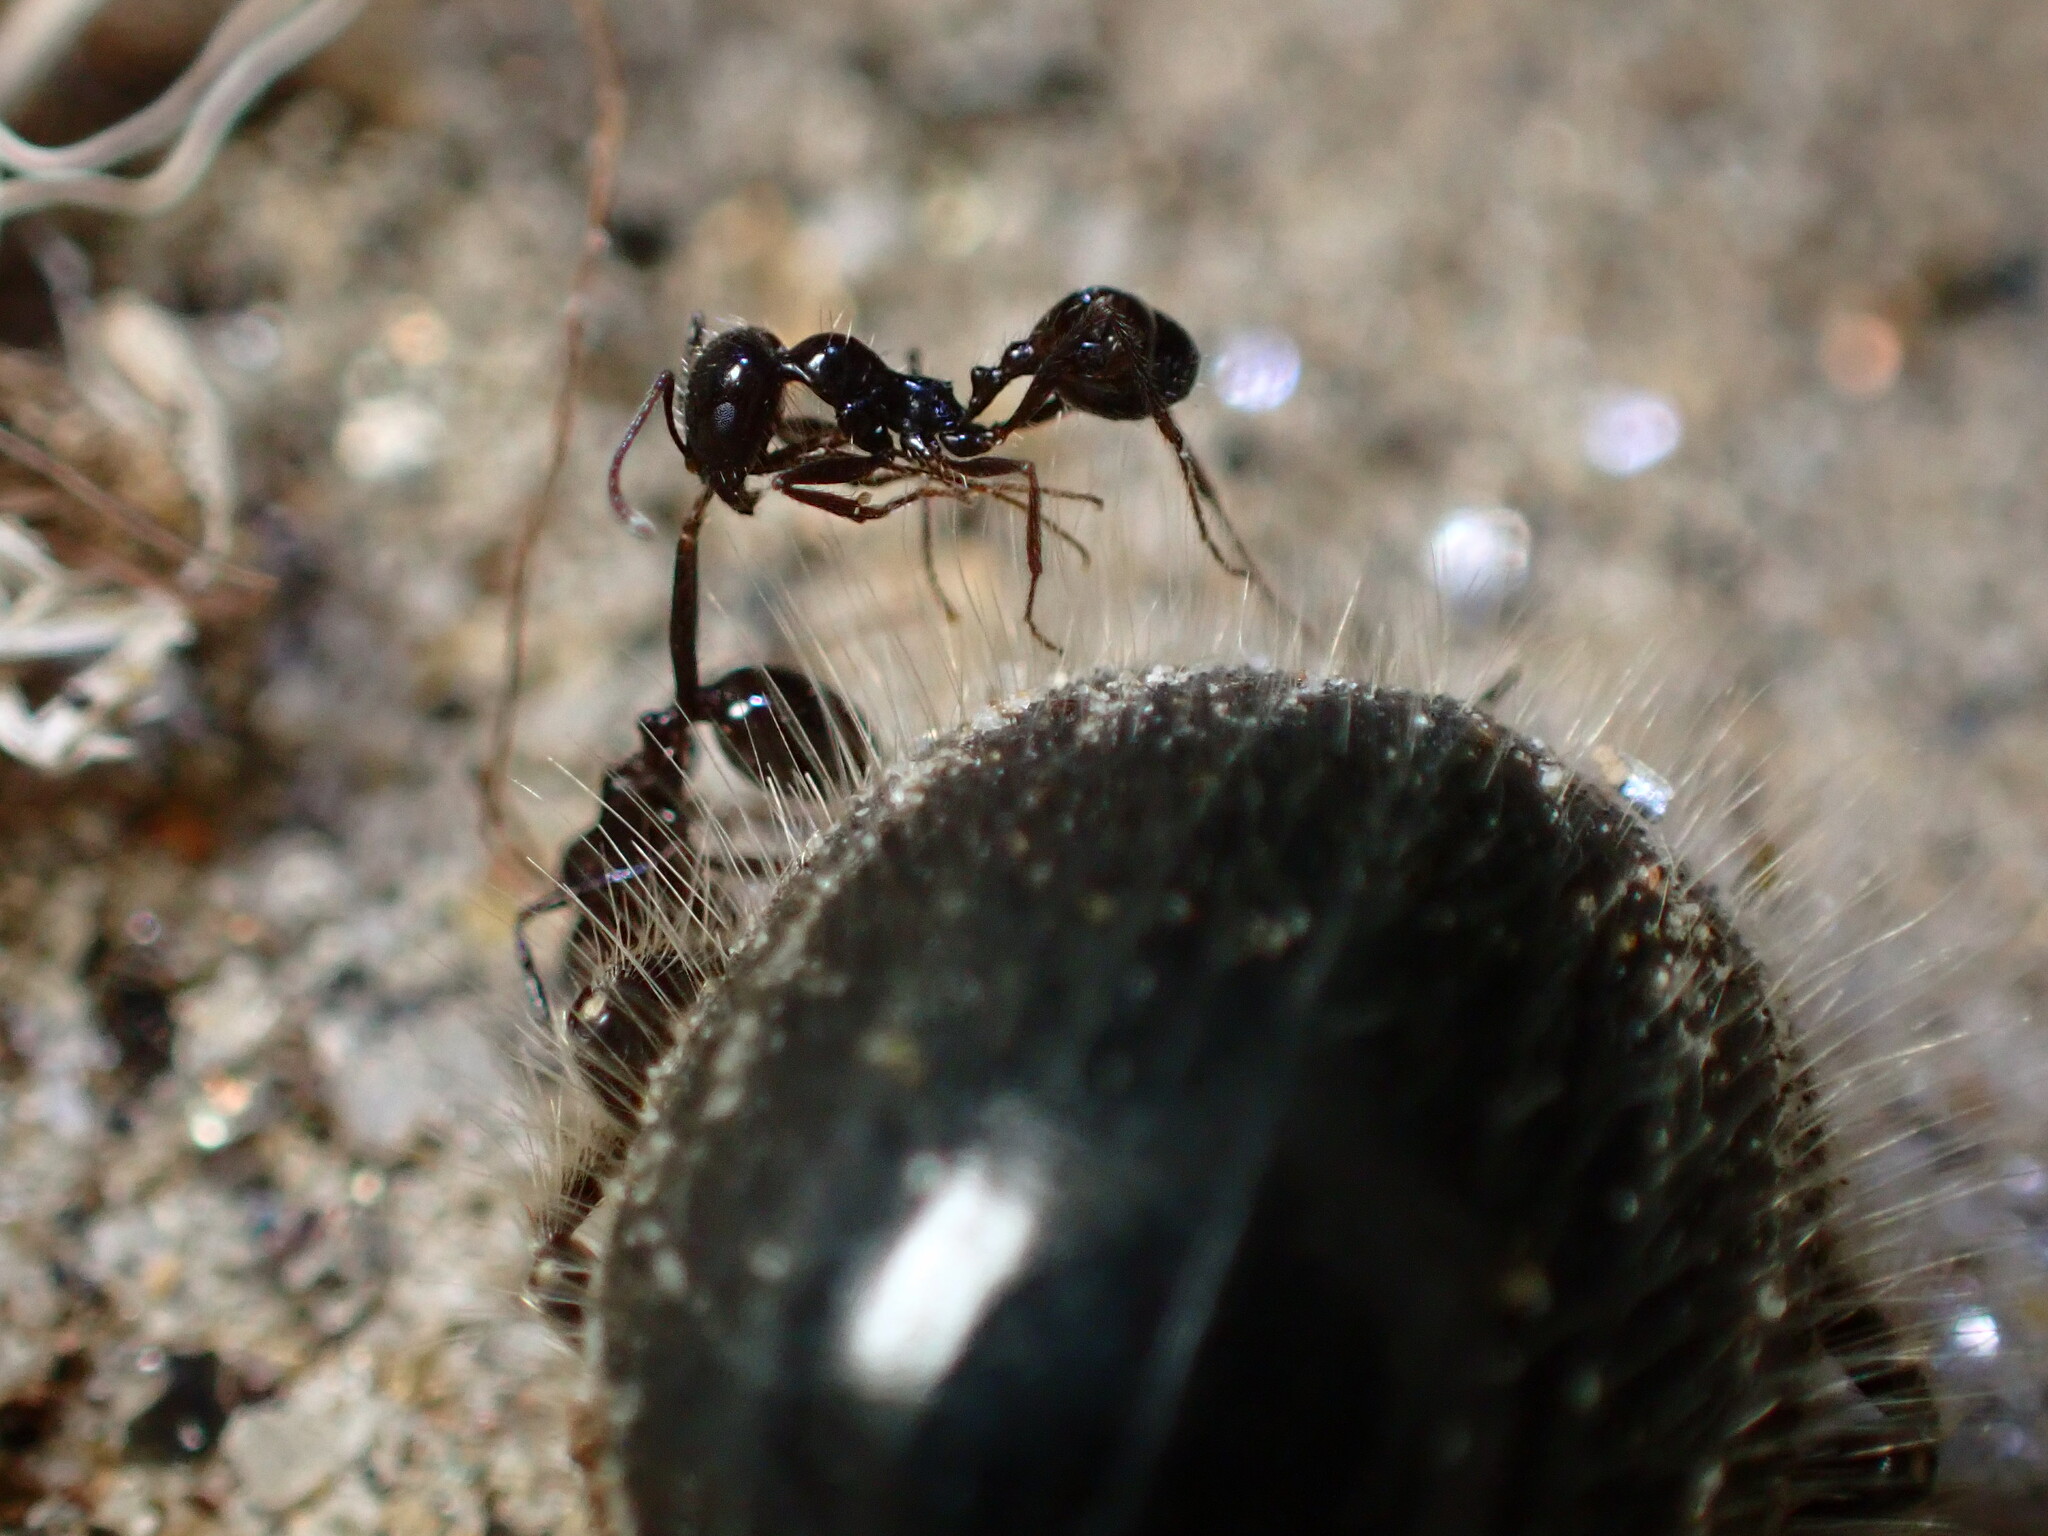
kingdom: Animalia
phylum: Arthropoda
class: Insecta
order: Hymenoptera
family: Formicidae
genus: Messor
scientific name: Messor pergandei
